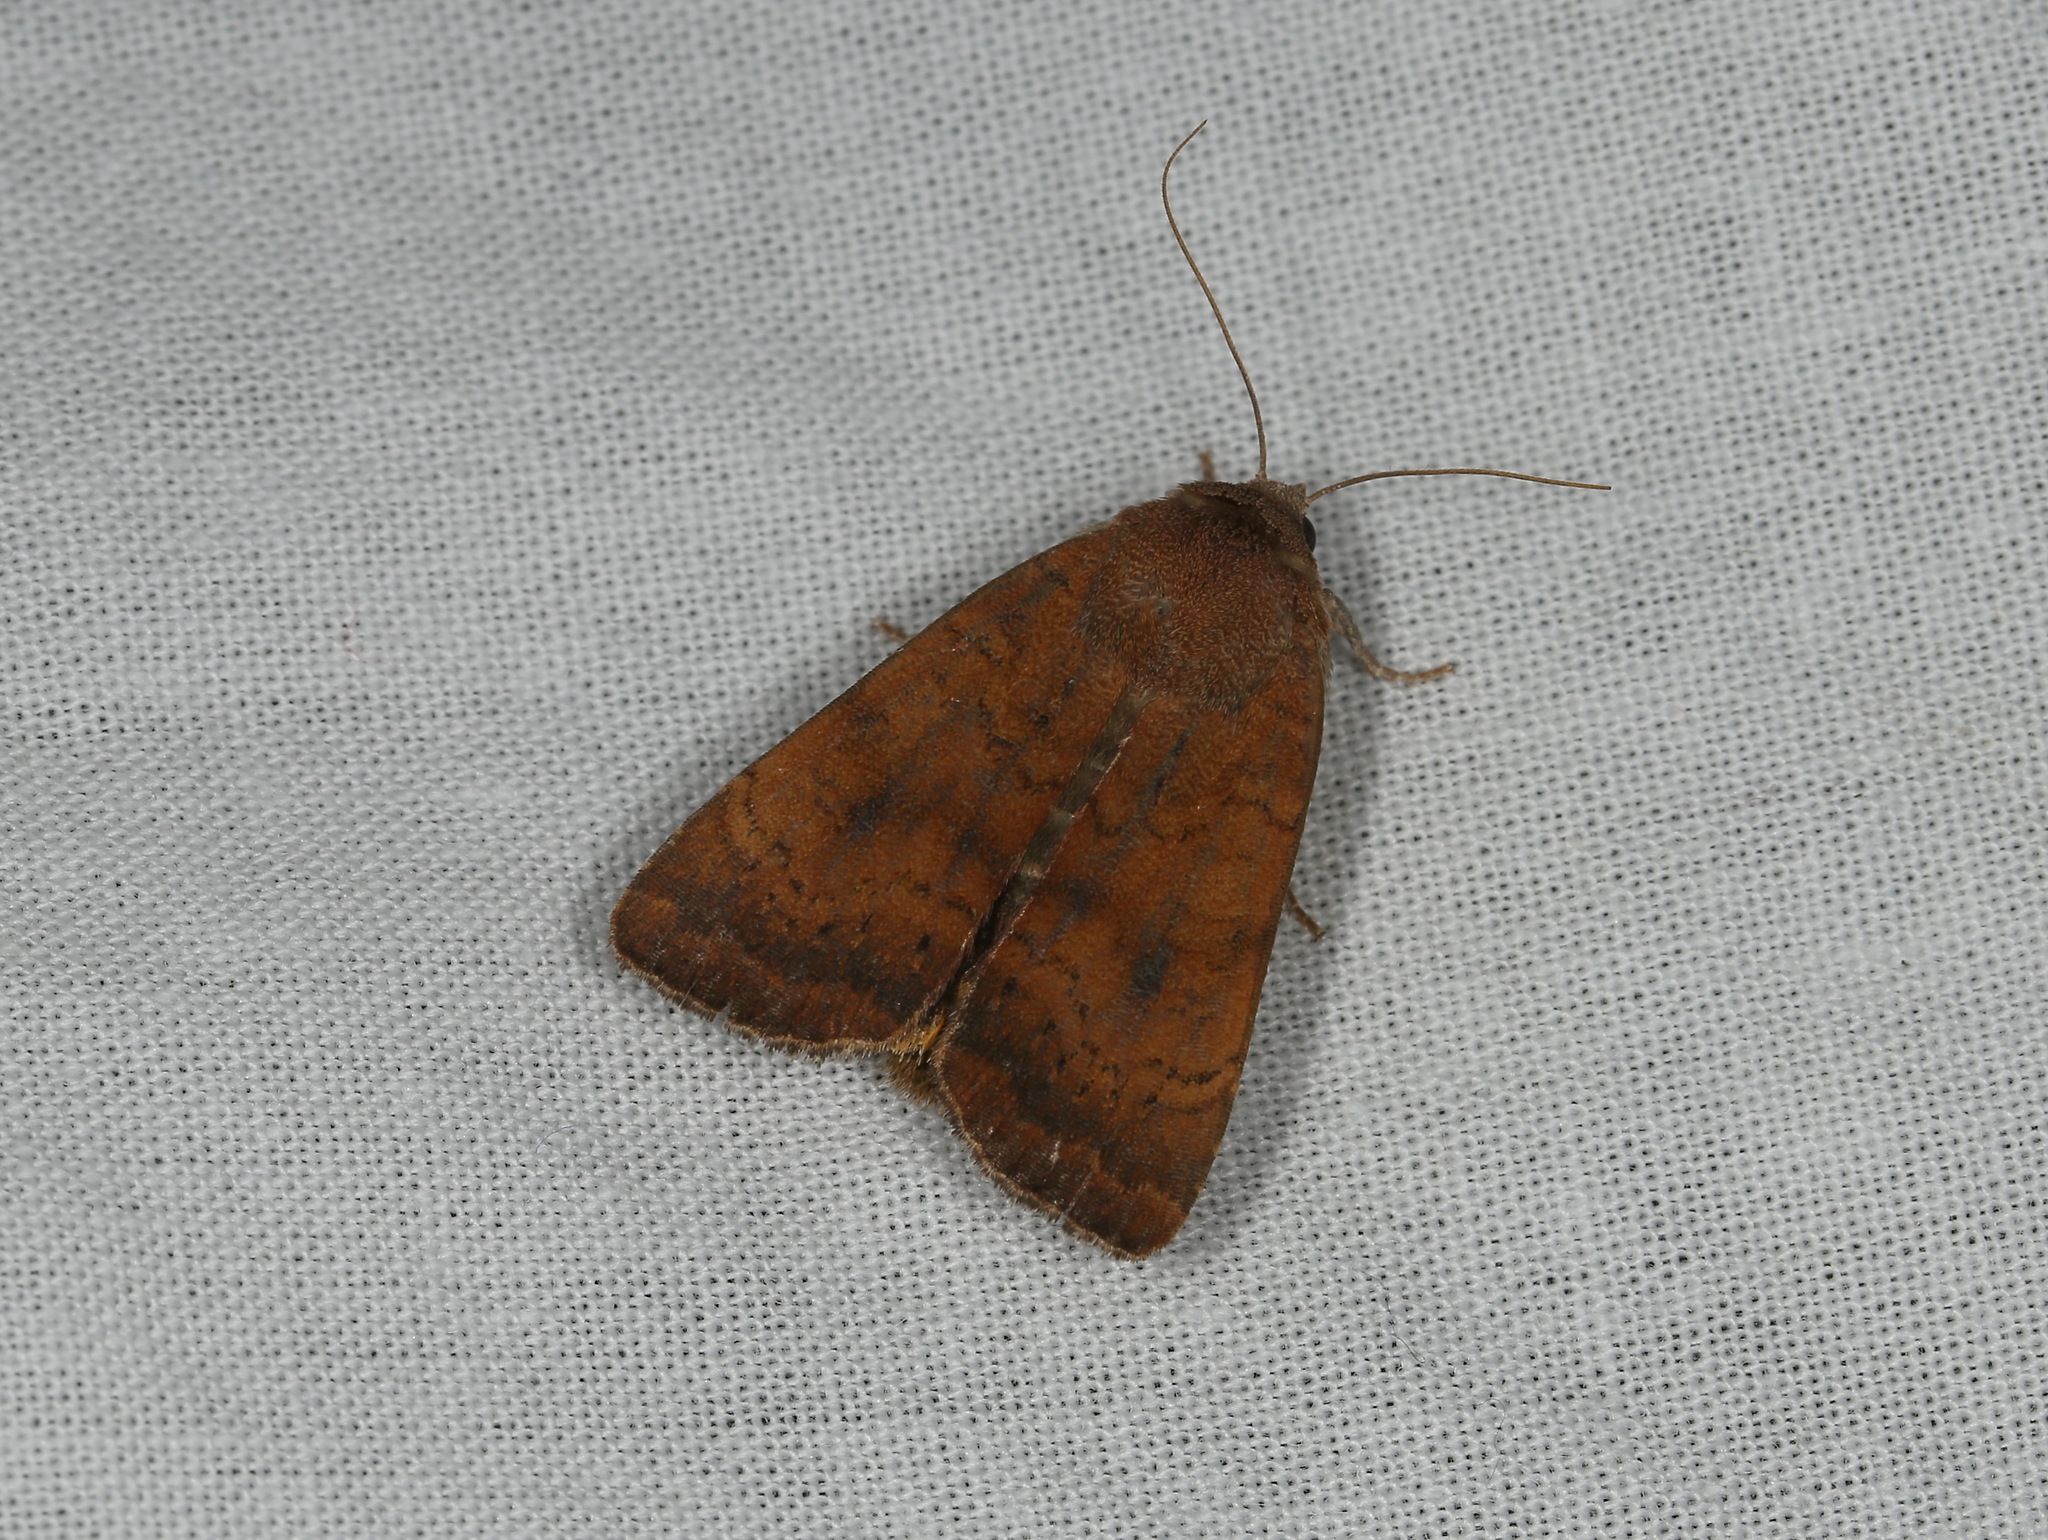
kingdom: Animalia
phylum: Arthropoda
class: Insecta
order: Lepidoptera
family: Noctuidae
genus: Noctua
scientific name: Noctua interjecta
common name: Least yellow underwing
